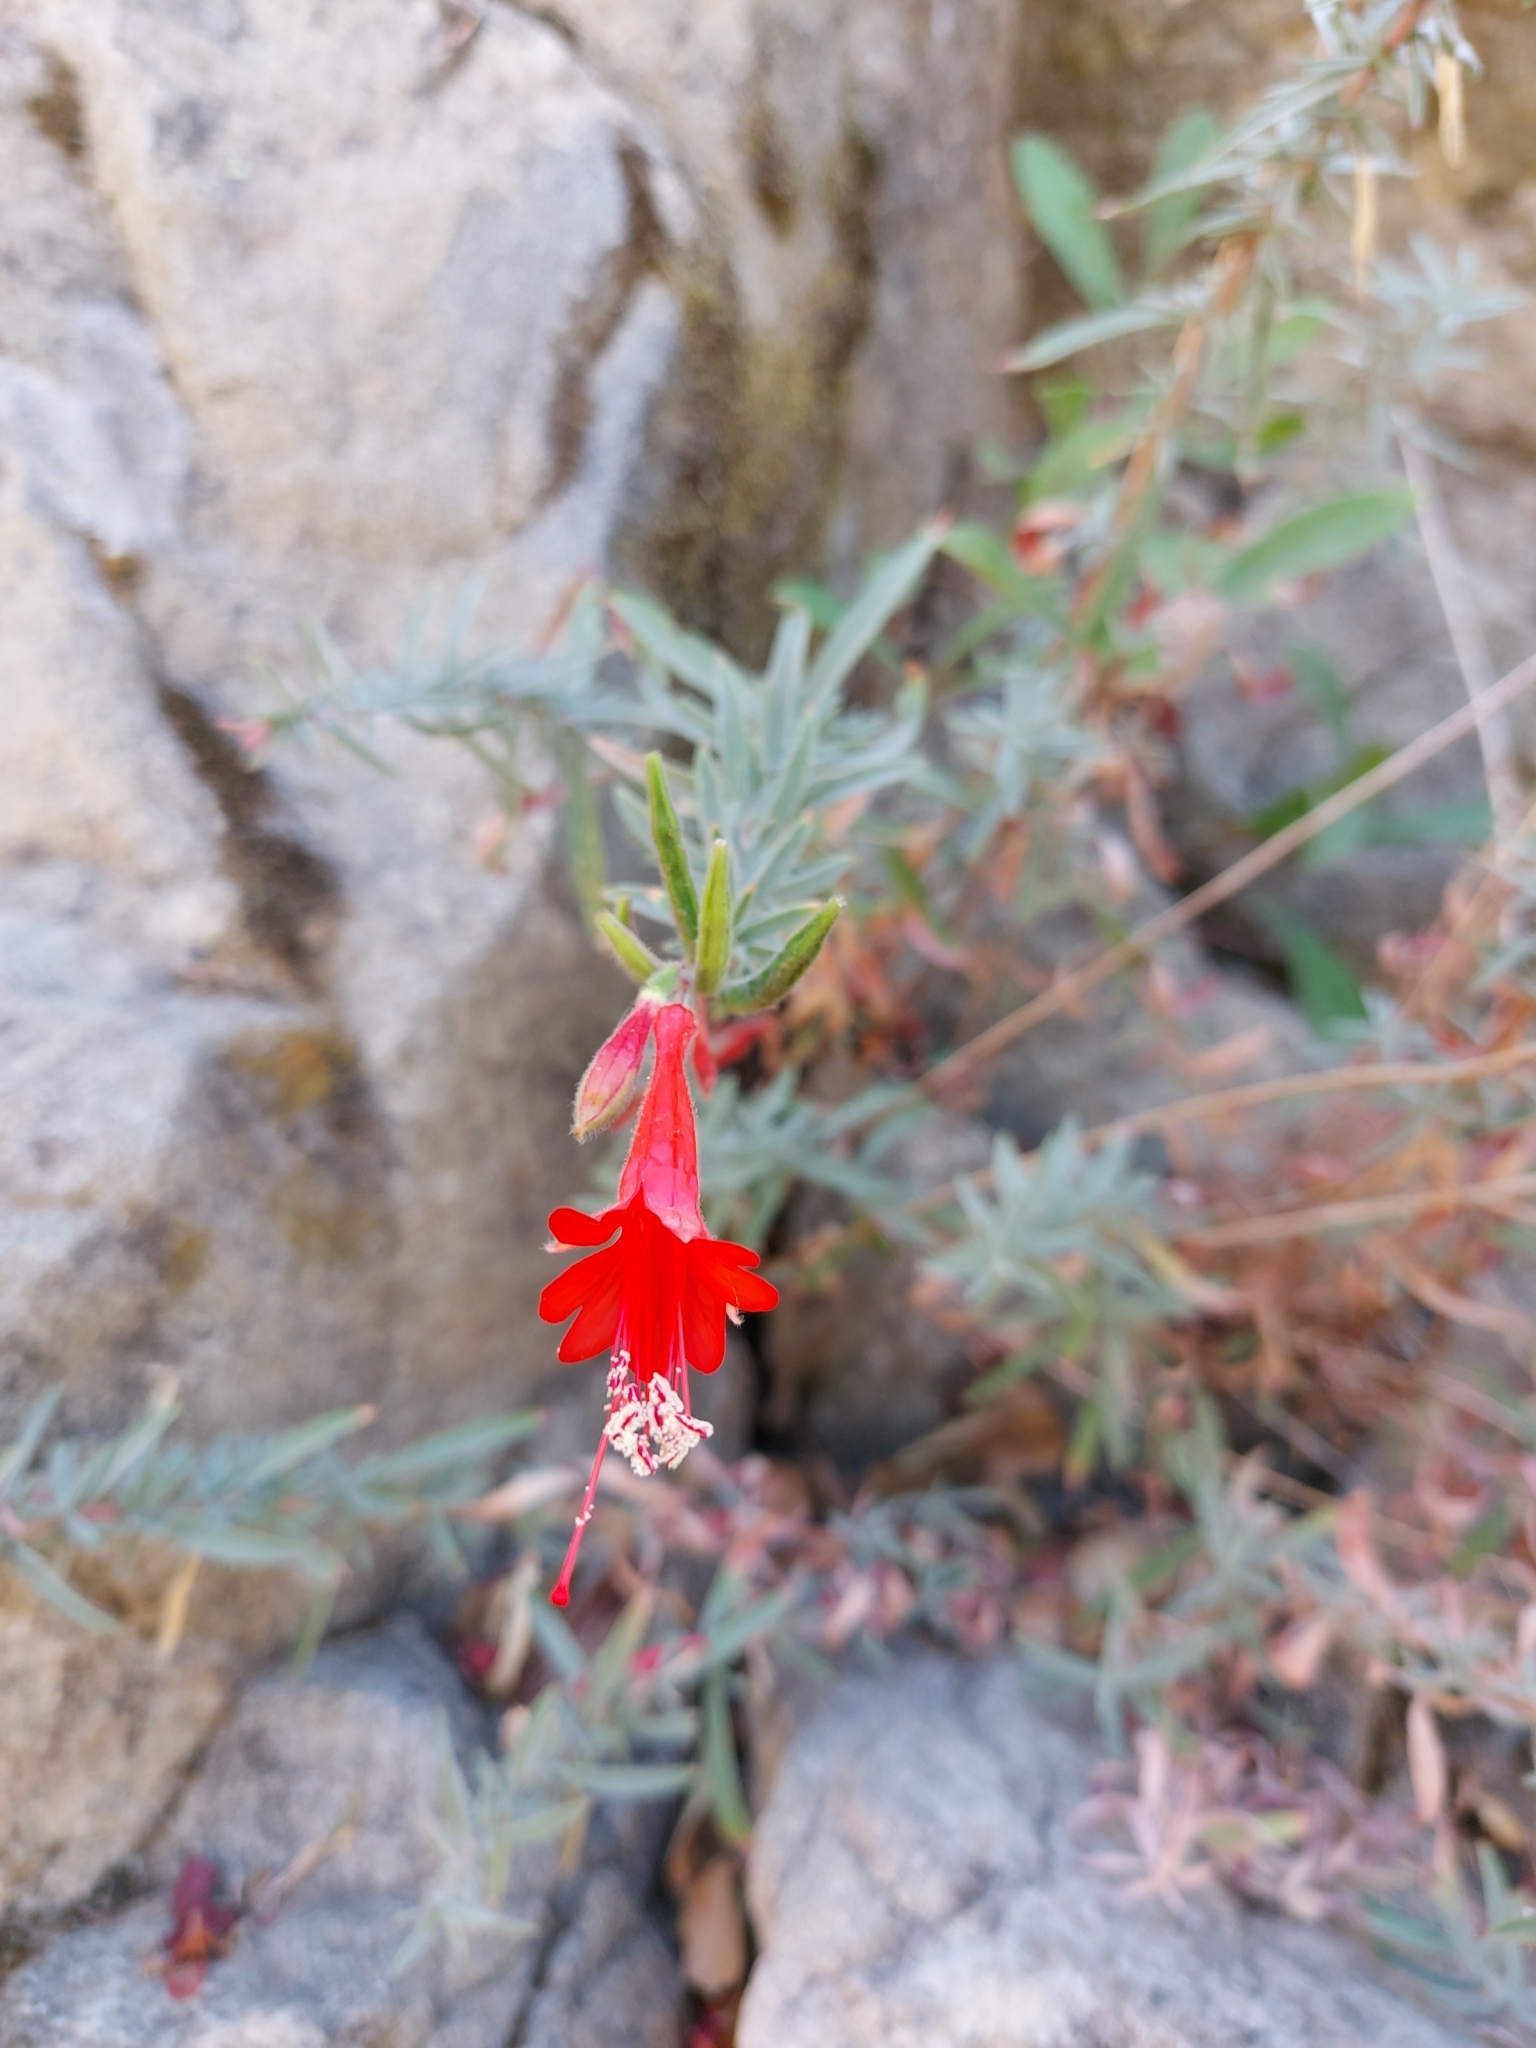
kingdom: Plantae
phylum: Tracheophyta
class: Magnoliopsida
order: Myrtales
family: Onagraceae
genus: Epilobium
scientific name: Epilobium canum
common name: California-fuchsia
